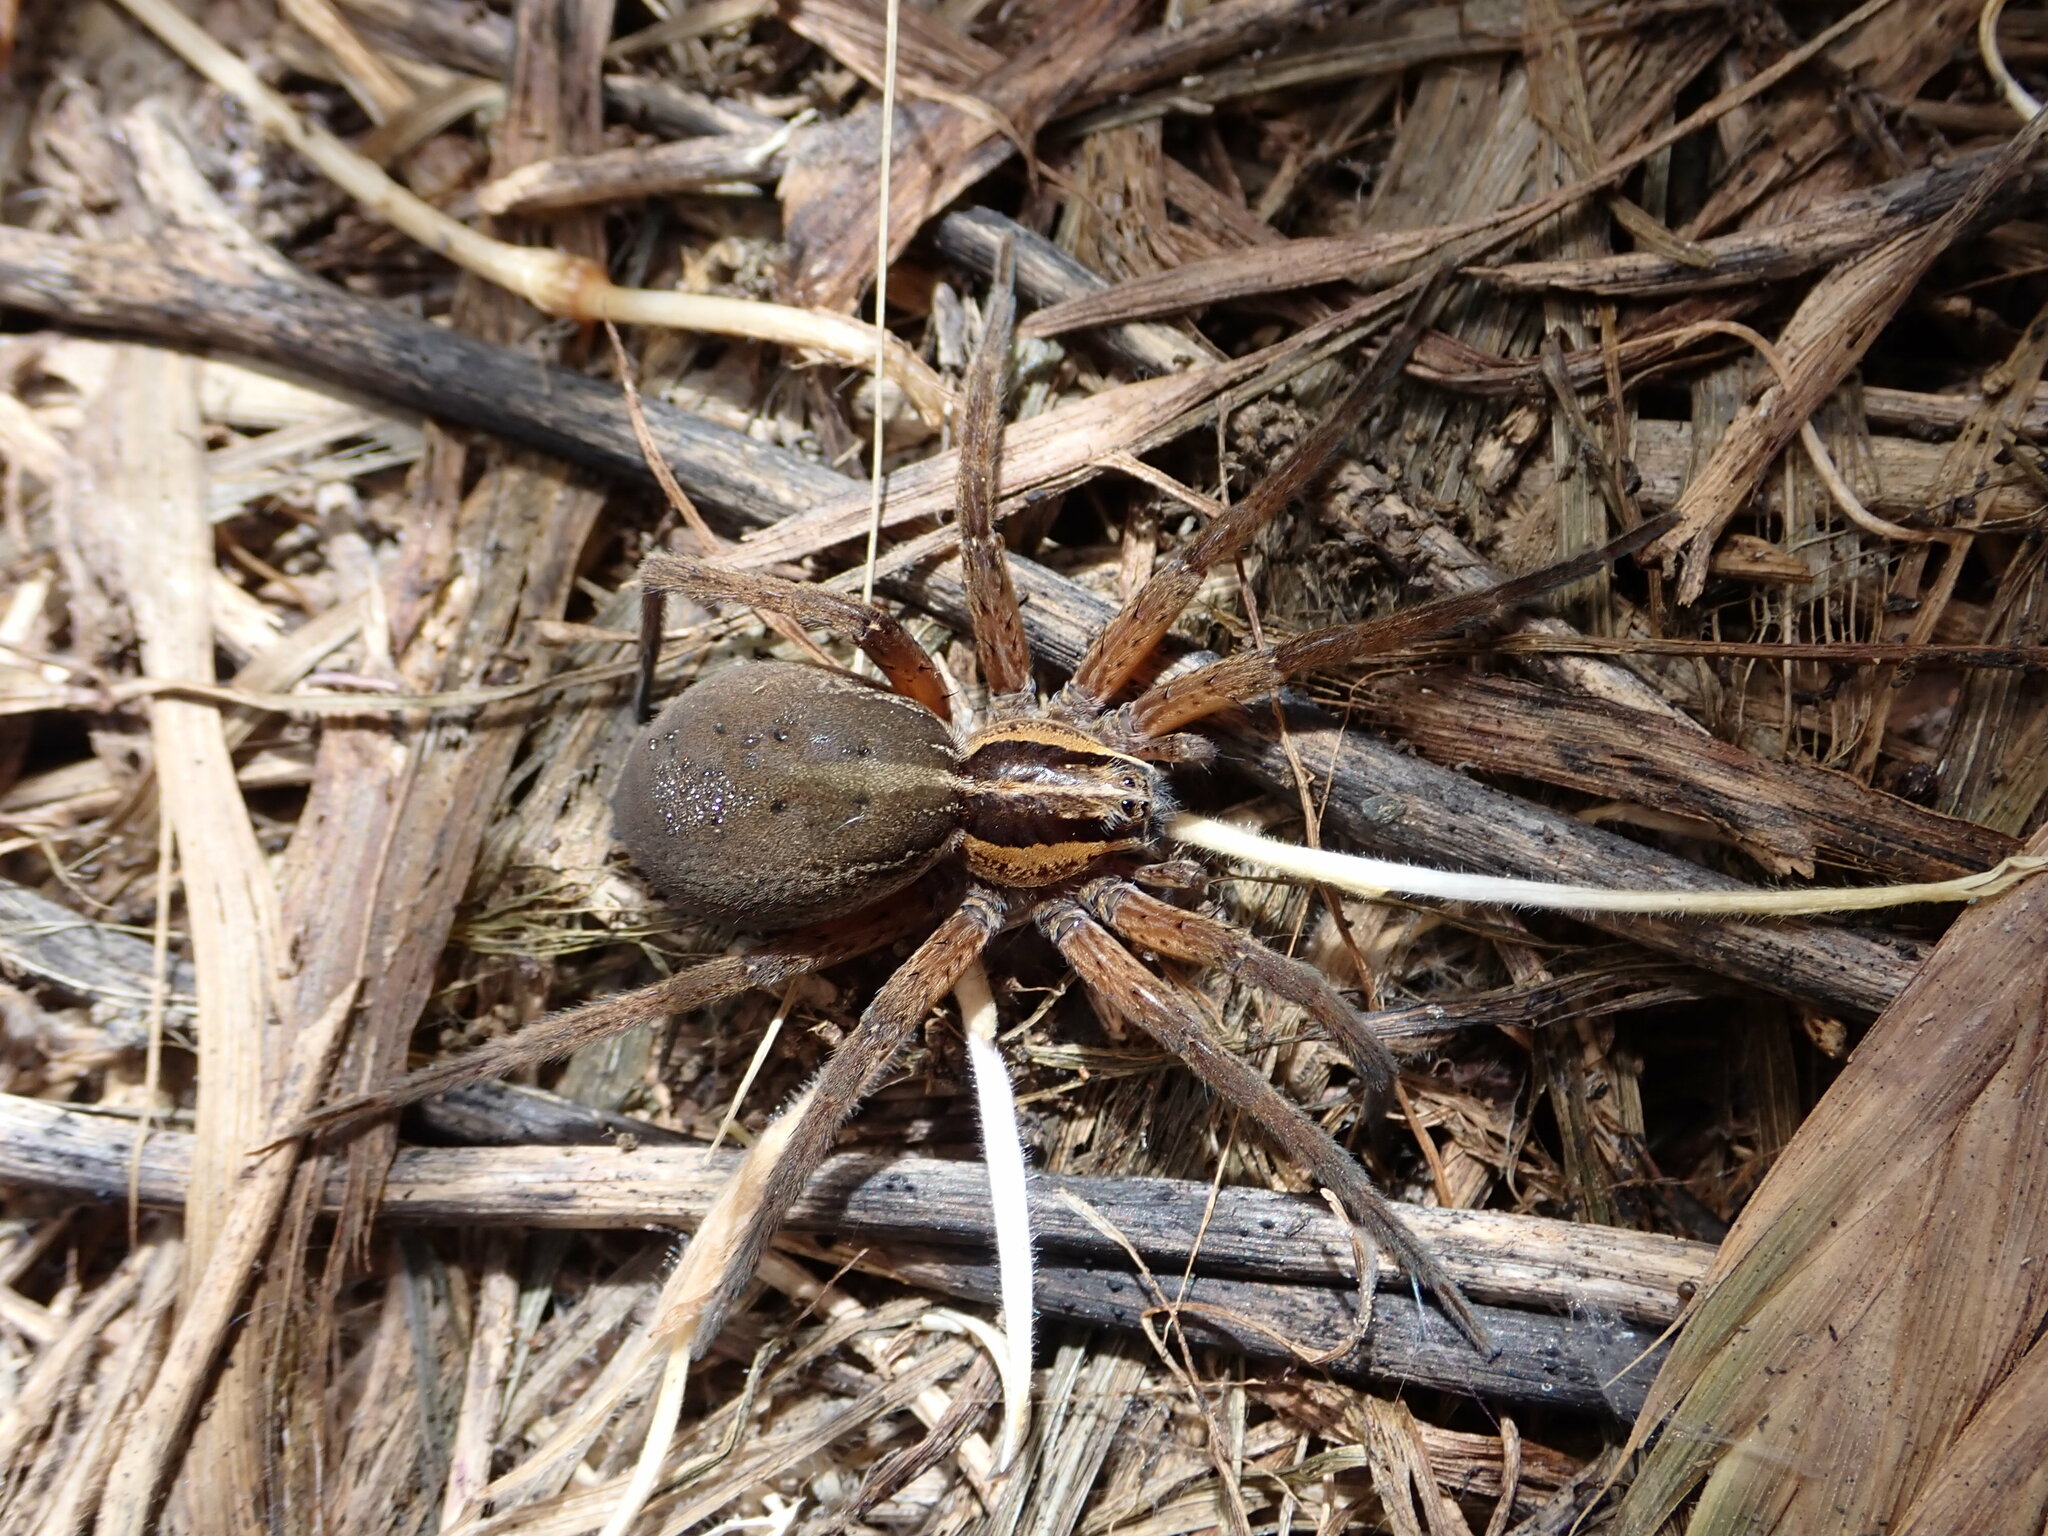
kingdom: Animalia
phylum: Arthropoda
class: Arachnida
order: Araneae
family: Pisauridae
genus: Dolomedes
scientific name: Dolomedes minor
